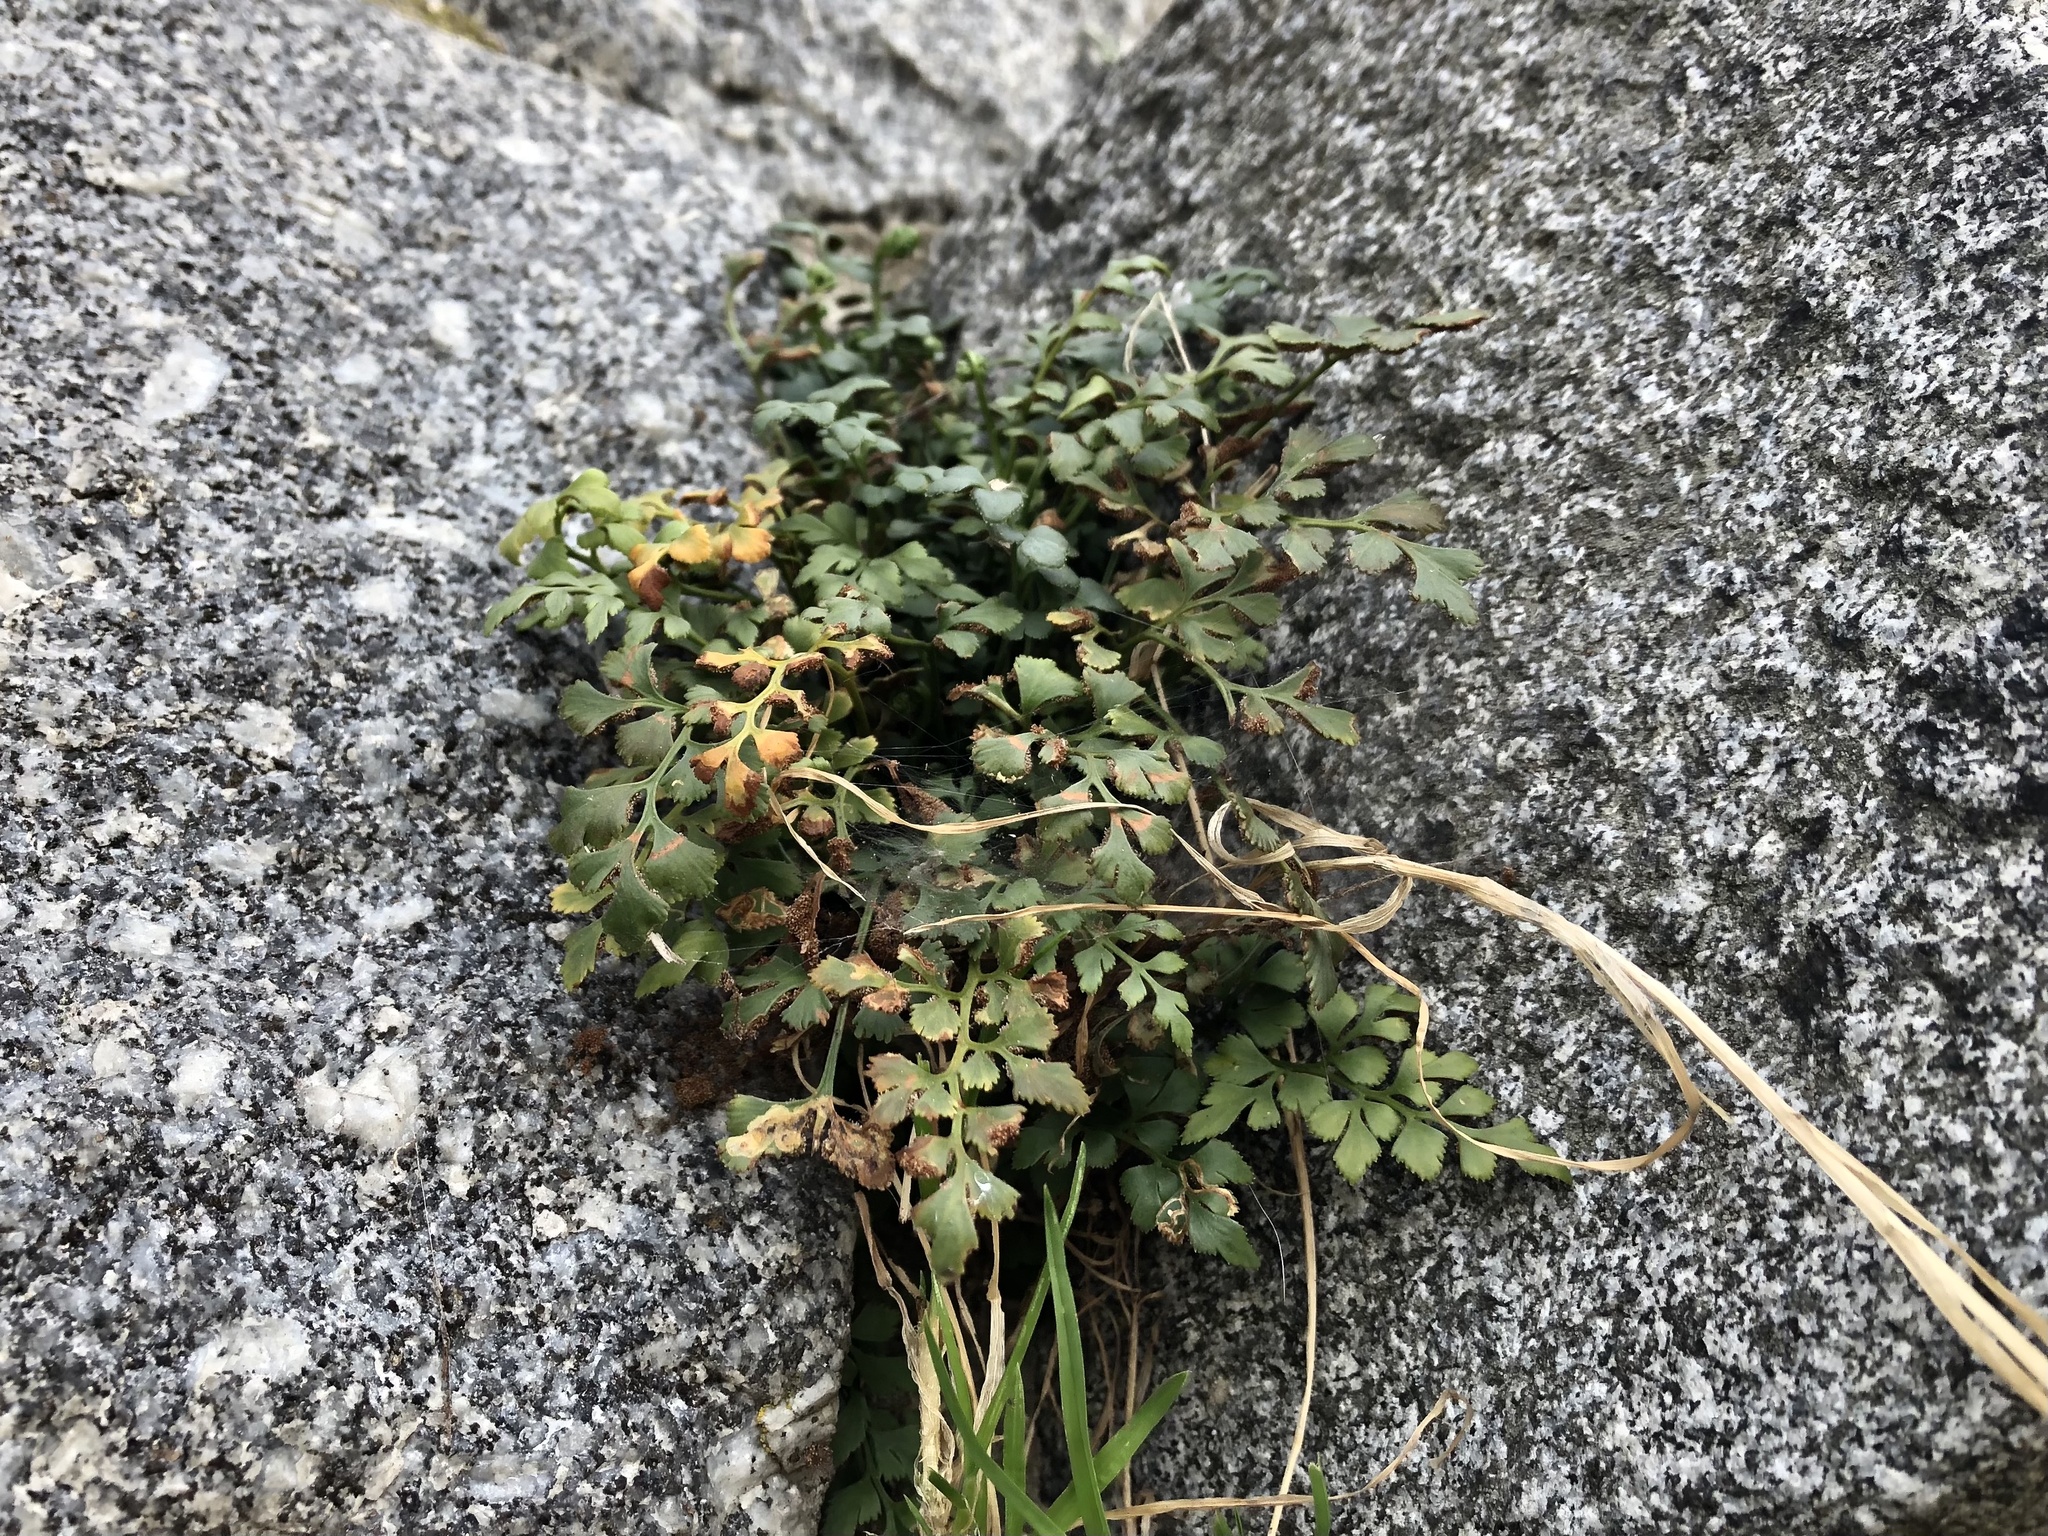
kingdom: Plantae
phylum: Tracheophyta
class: Polypodiopsida
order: Polypodiales
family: Aspleniaceae
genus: Asplenium
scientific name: Asplenium ruta-muraria
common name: Wall-rue
